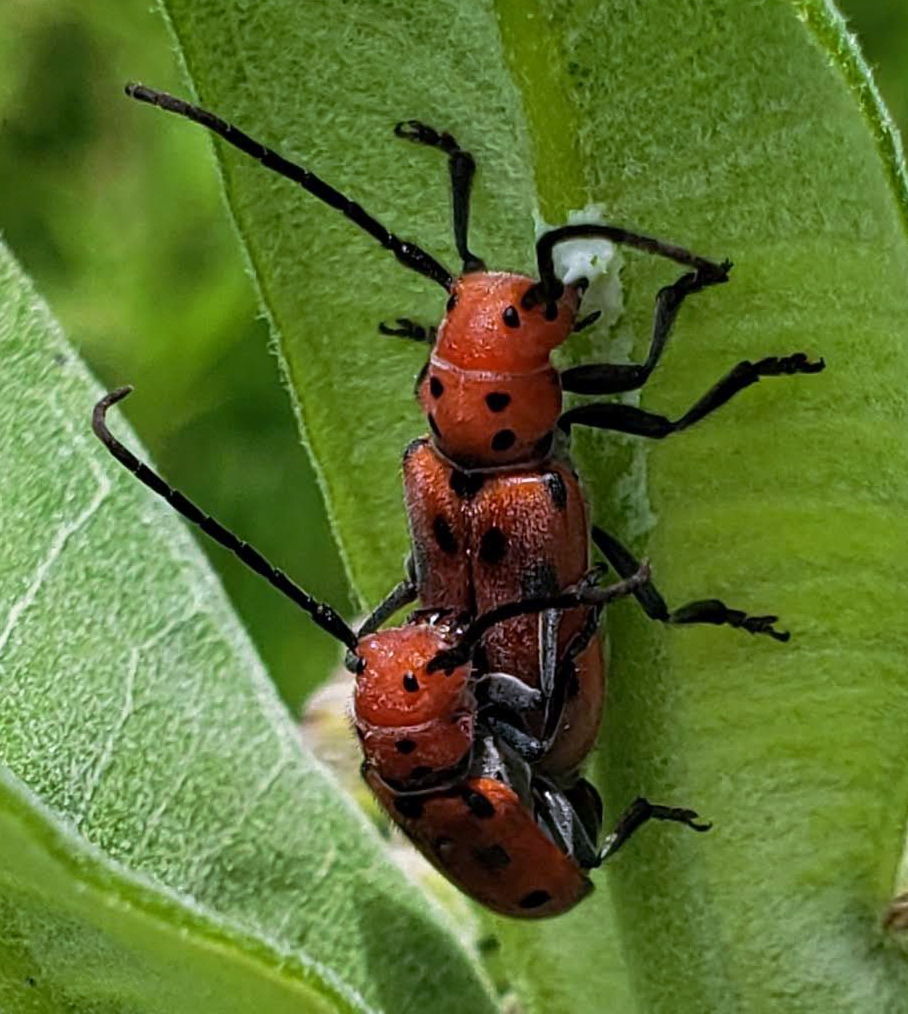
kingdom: Animalia
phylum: Arthropoda
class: Insecta
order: Coleoptera
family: Cerambycidae
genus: Tetraopes
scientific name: Tetraopes tetrophthalmus
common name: Red milkweed beetle
